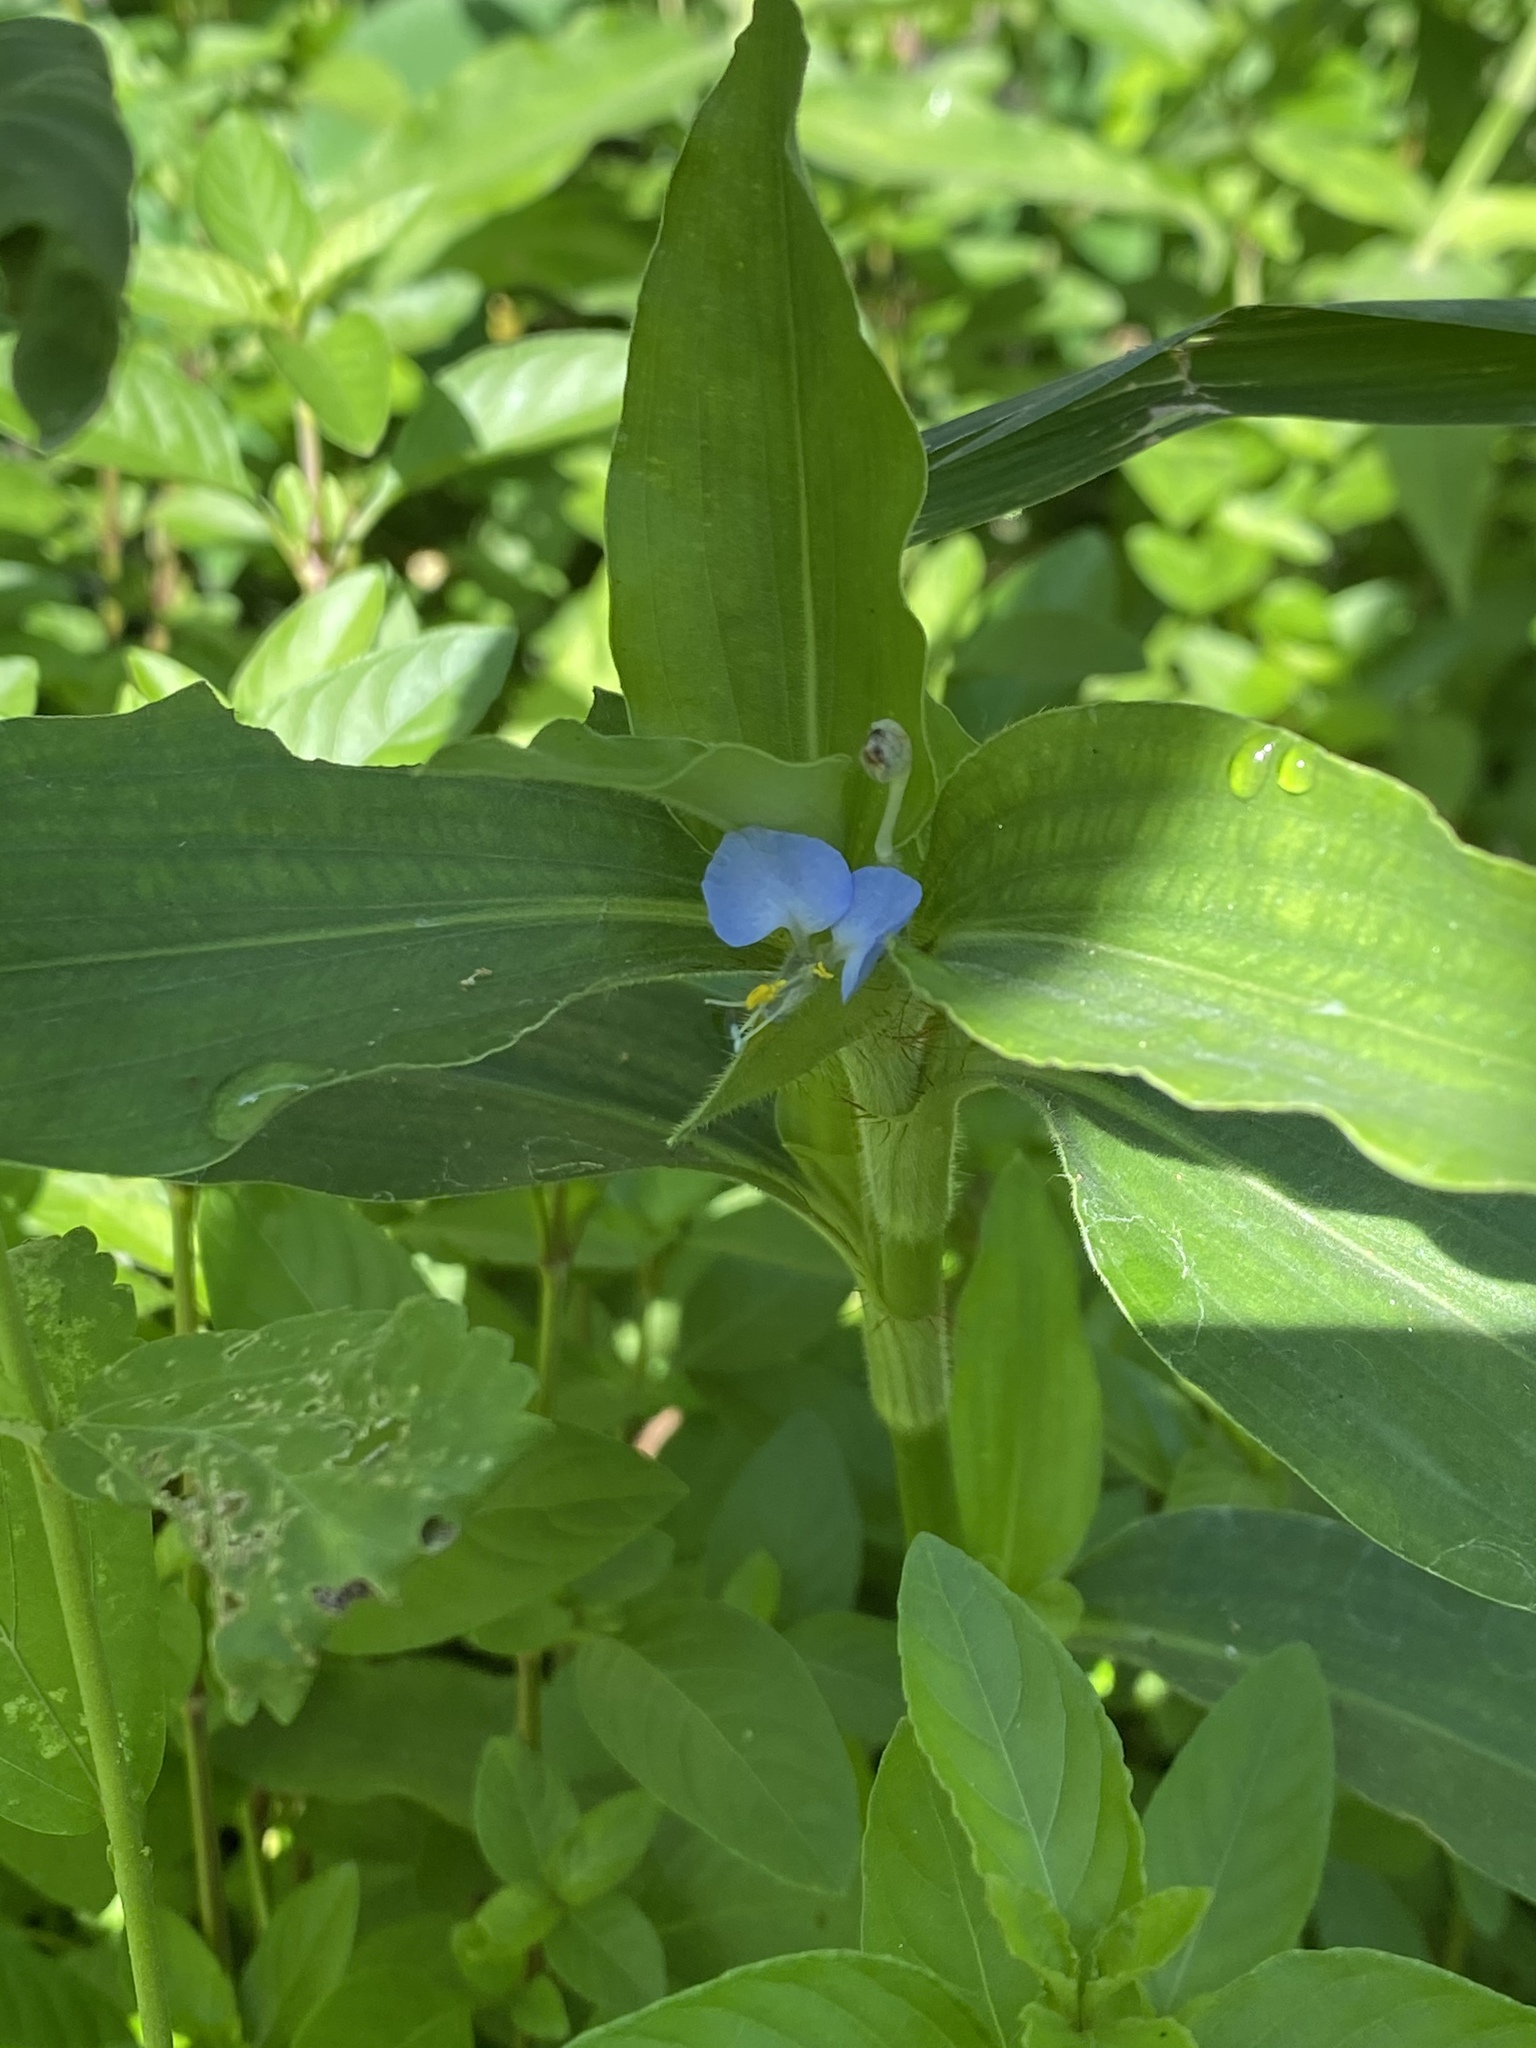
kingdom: Plantae
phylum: Tracheophyta
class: Liliopsida
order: Commelinales
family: Commelinaceae
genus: Commelina
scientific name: Commelina benghalensis
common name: Jio
